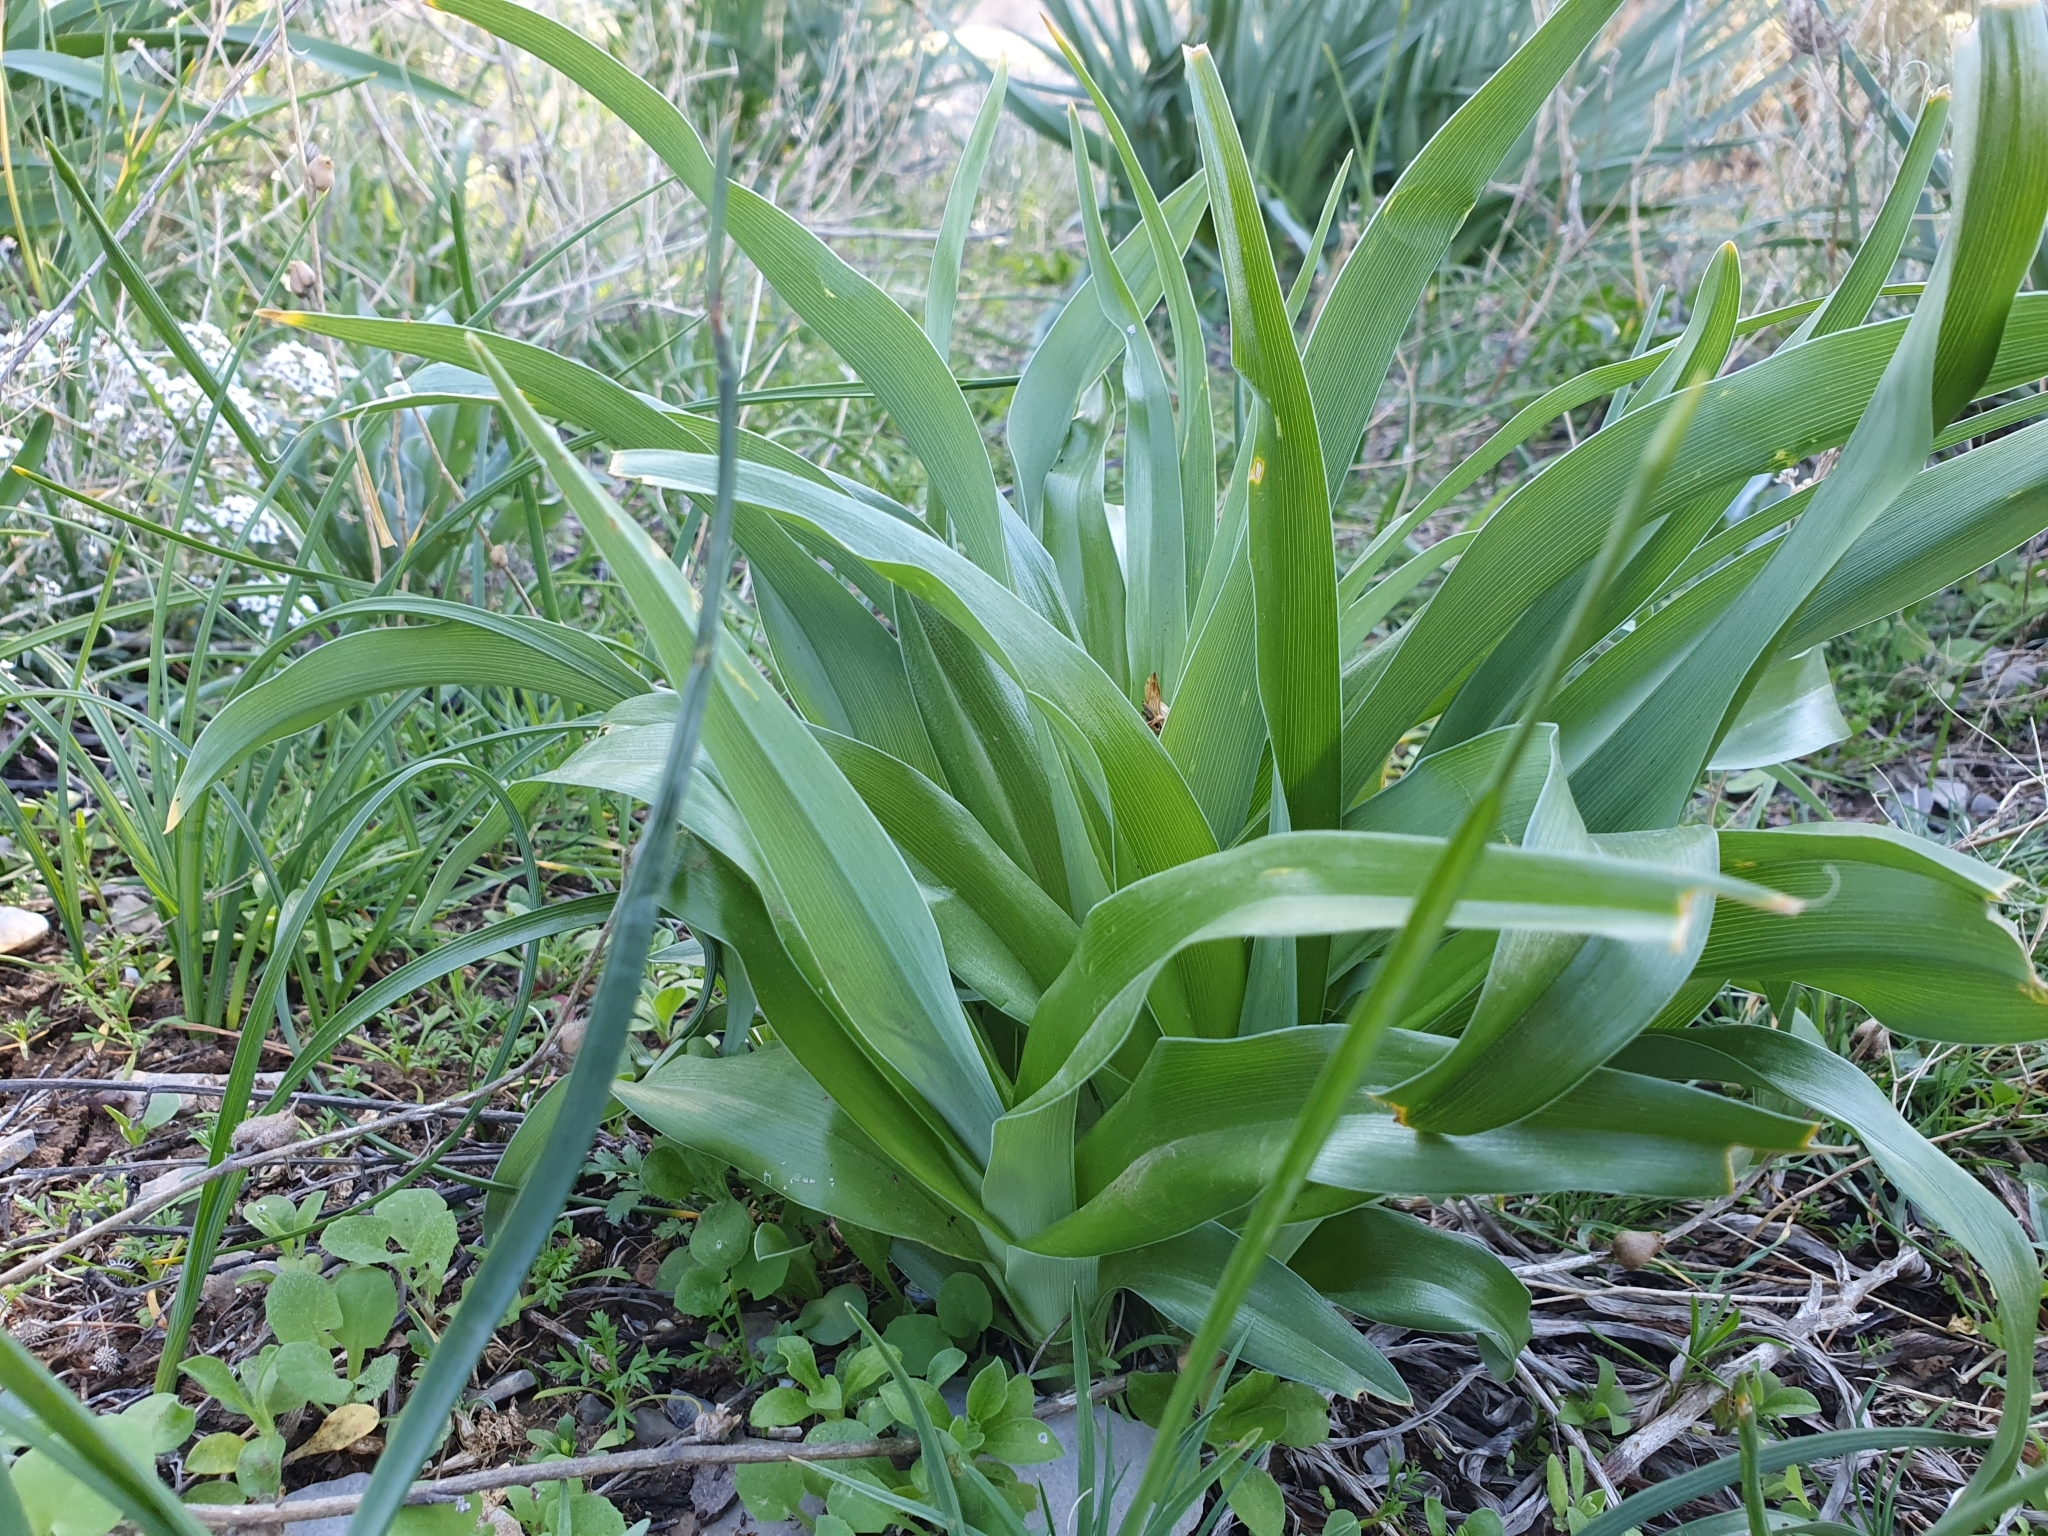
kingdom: Plantae
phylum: Tracheophyta
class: Liliopsida
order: Asparagales
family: Iridaceae
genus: Iris
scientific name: Iris planifolia
